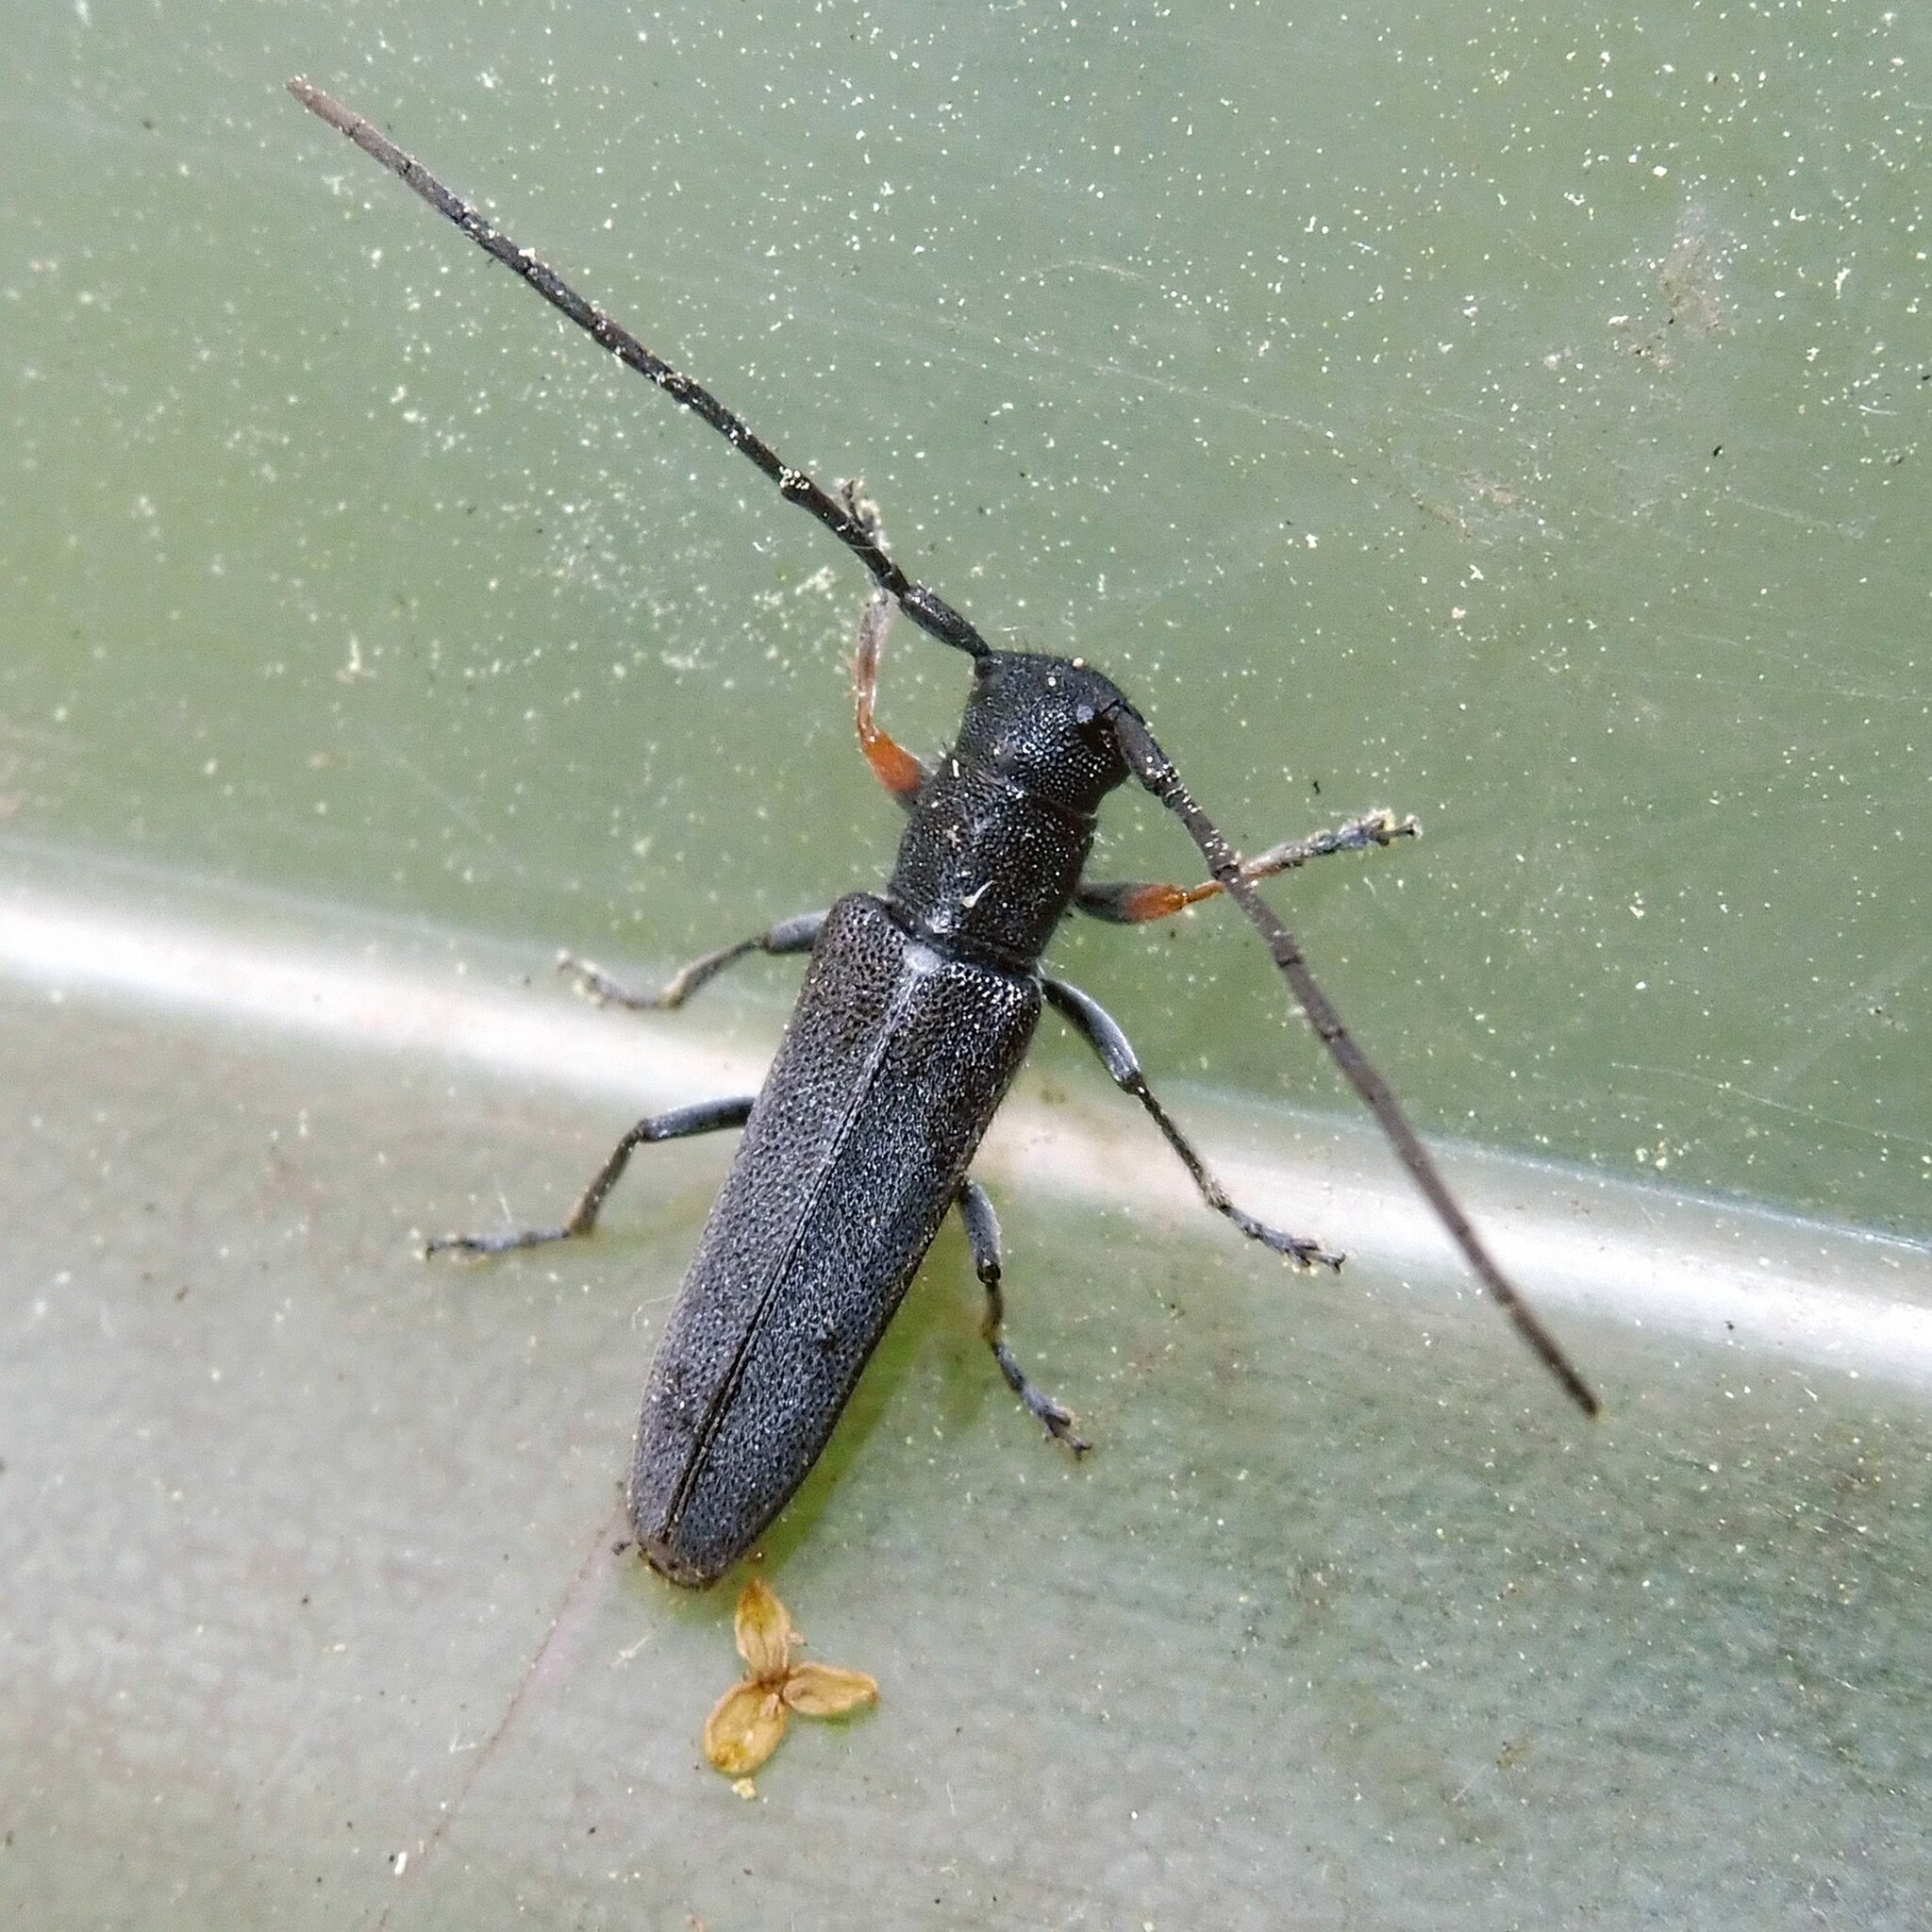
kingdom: Animalia
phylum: Arthropoda
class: Insecta
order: Coleoptera
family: Cerambycidae
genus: Phytoecia
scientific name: Phytoecia cylindrica
